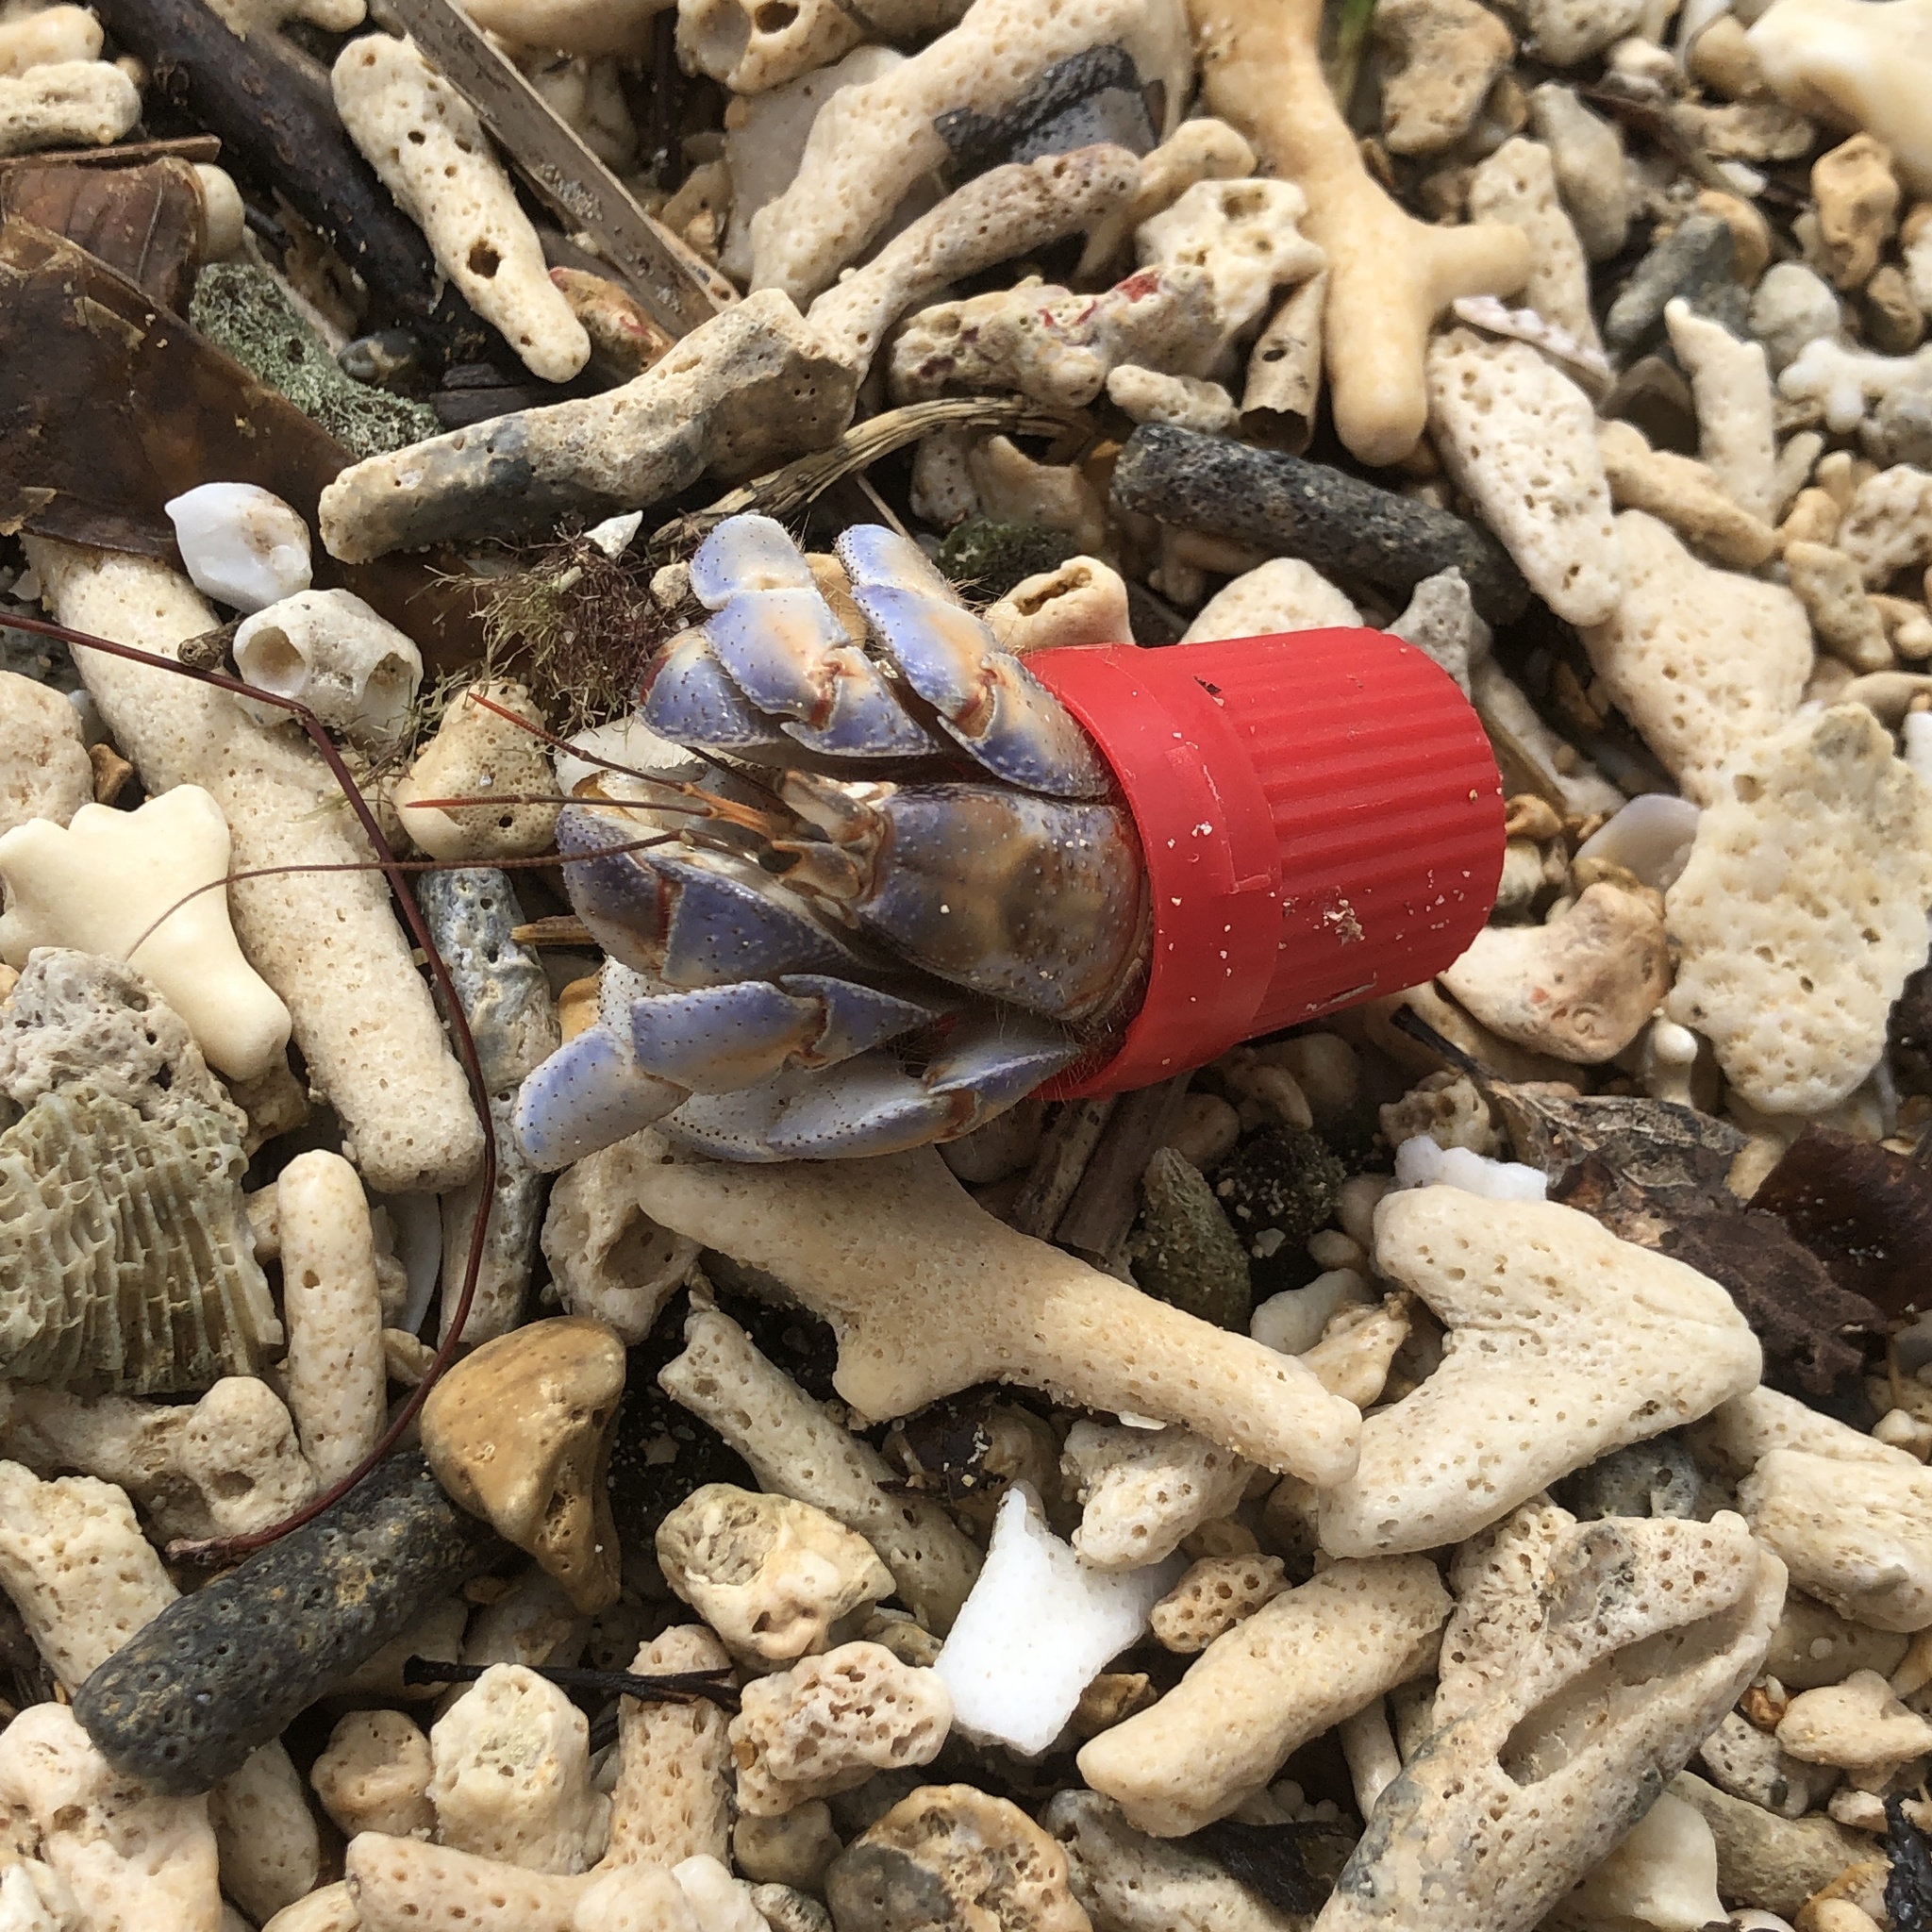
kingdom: Animalia
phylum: Arthropoda
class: Malacostraca
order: Decapoda
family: Coenobitidae
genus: Coenobita
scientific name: Coenobita purpureus
